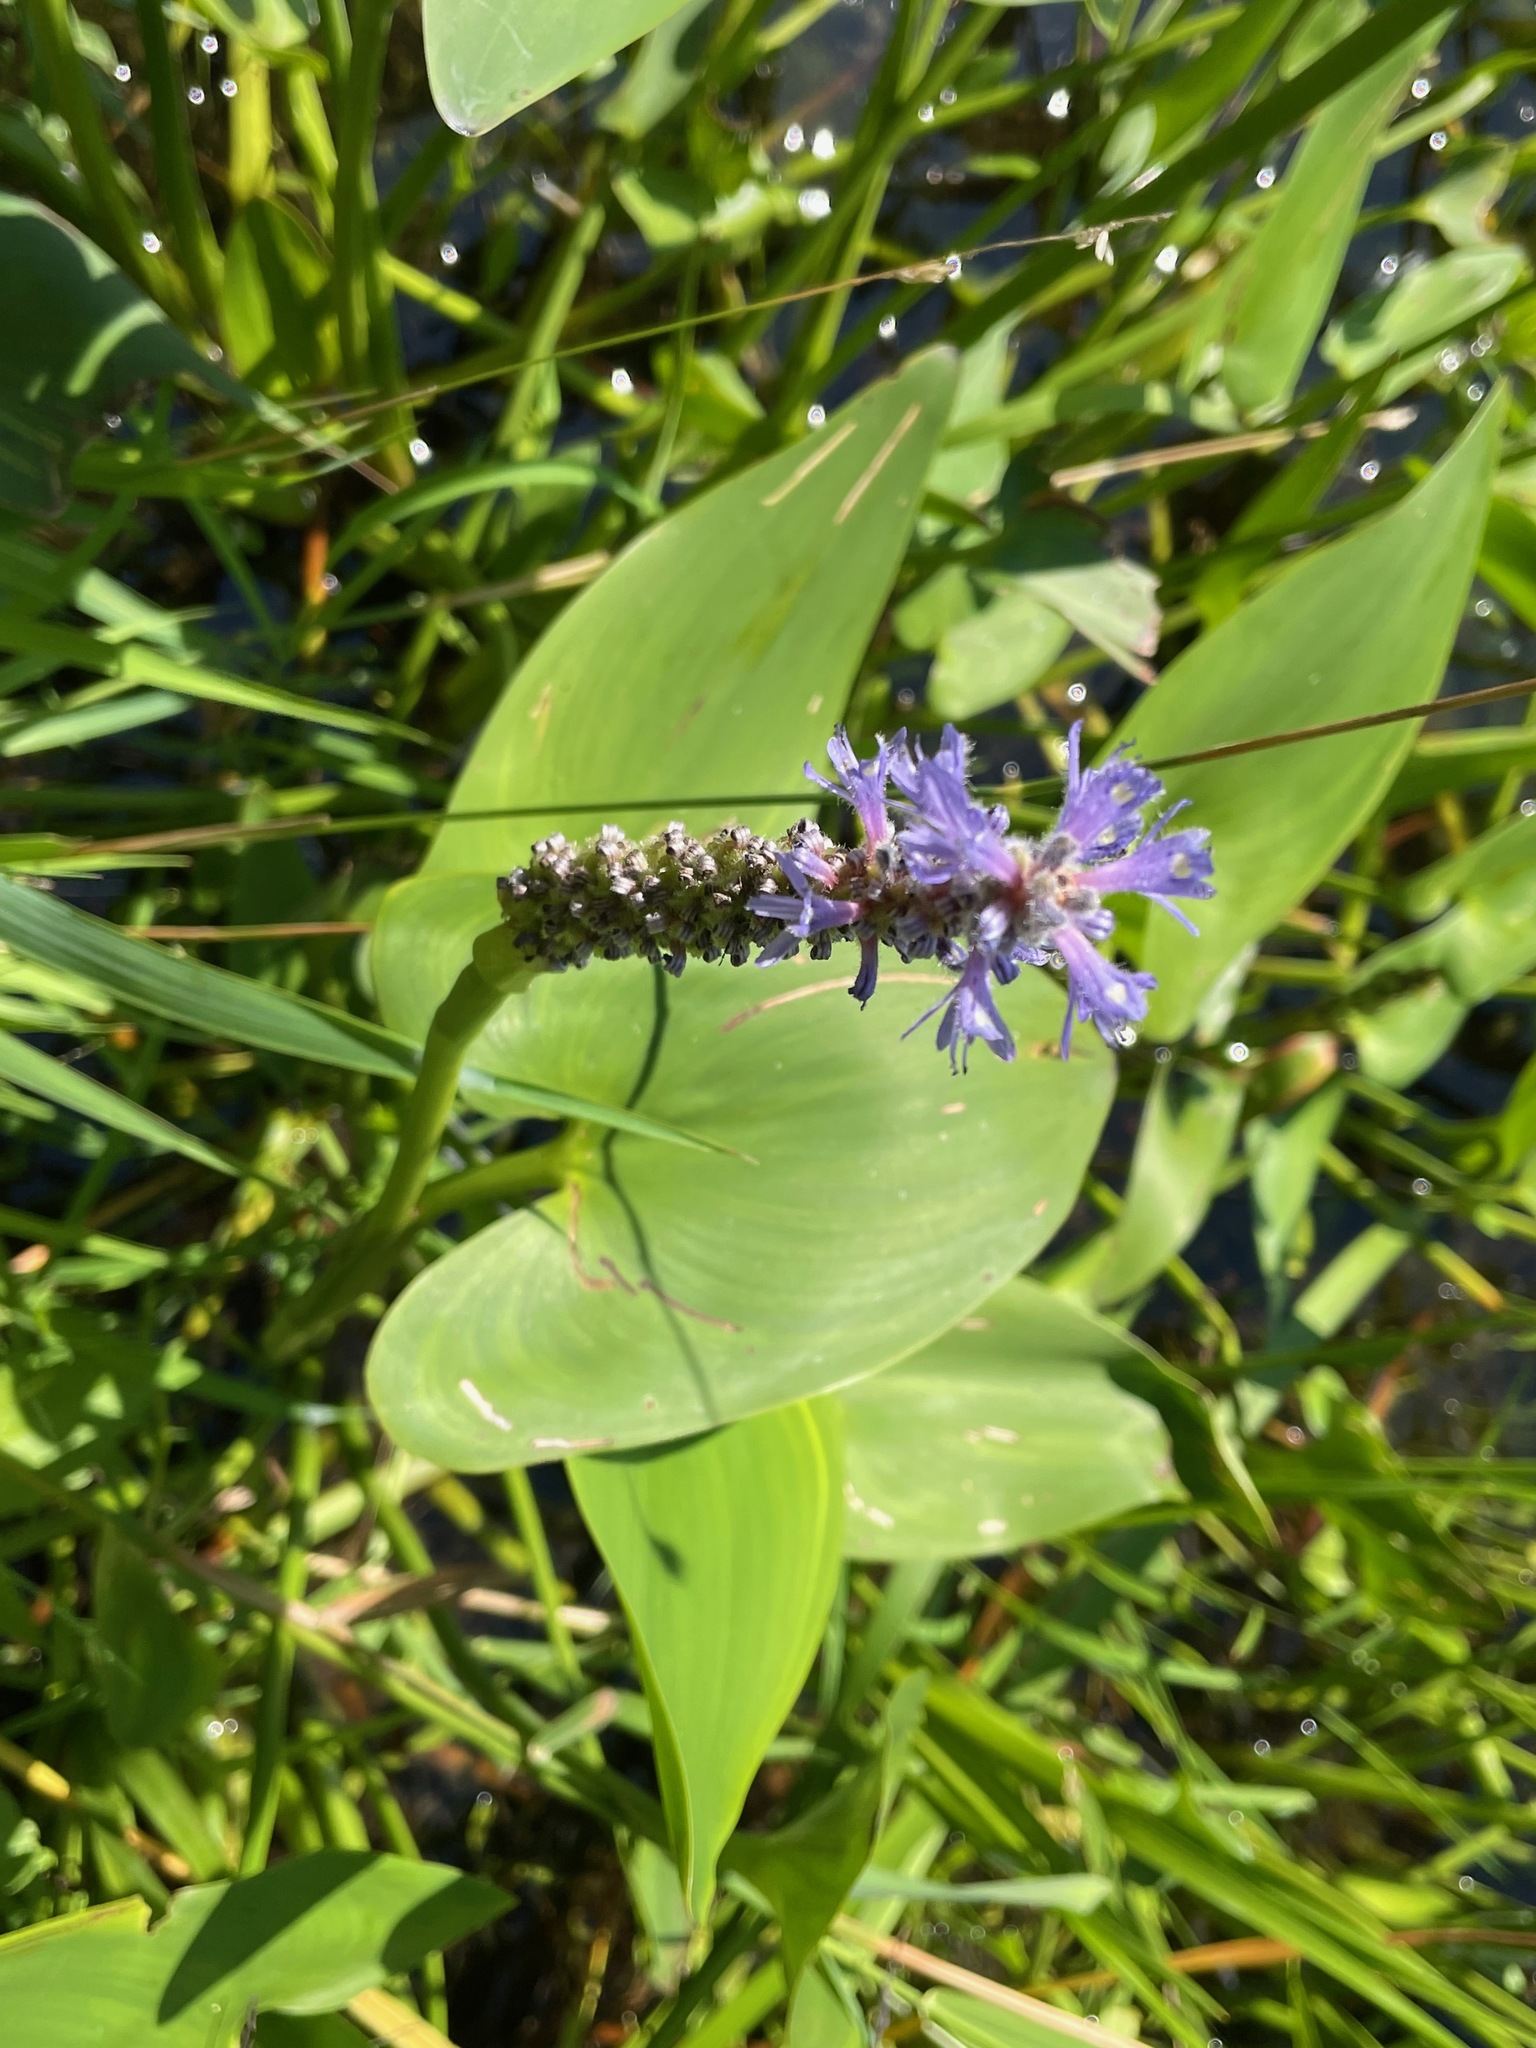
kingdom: Plantae
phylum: Tracheophyta
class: Liliopsida
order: Commelinales
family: Pontederiaceae
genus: Pontederia
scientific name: Pontederia cordata
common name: Pickerelweed
